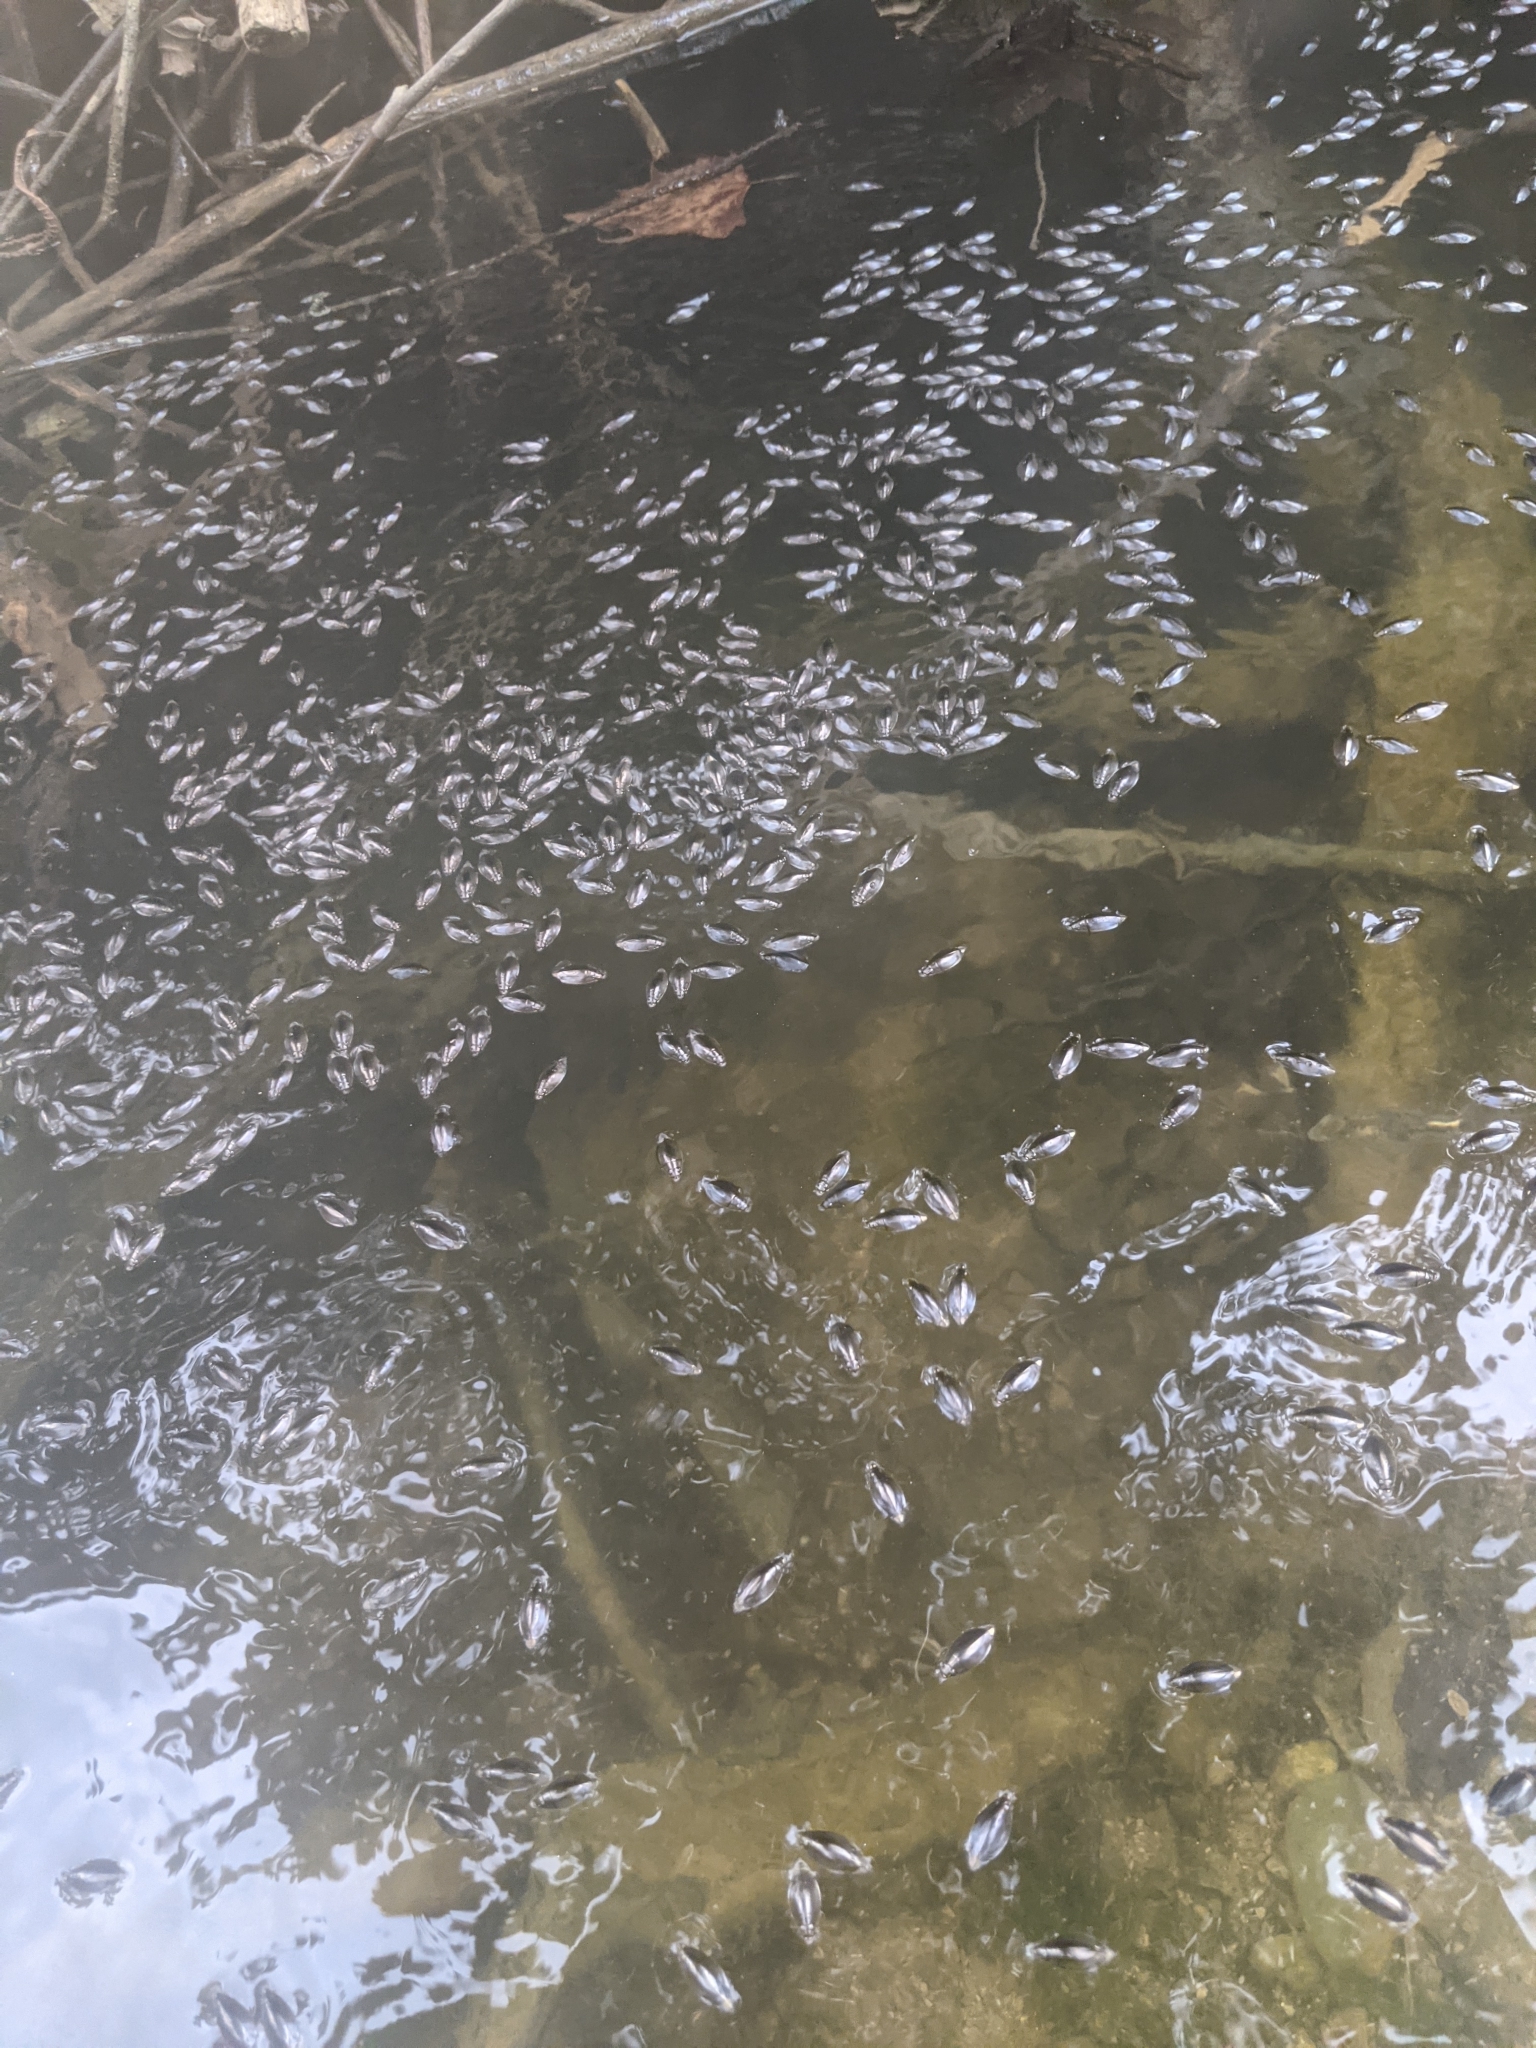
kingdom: Animalia
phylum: Arthropoda
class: Insecta
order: Coleoptera
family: Gyrinidae
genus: Dineutus
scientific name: Dineutus
